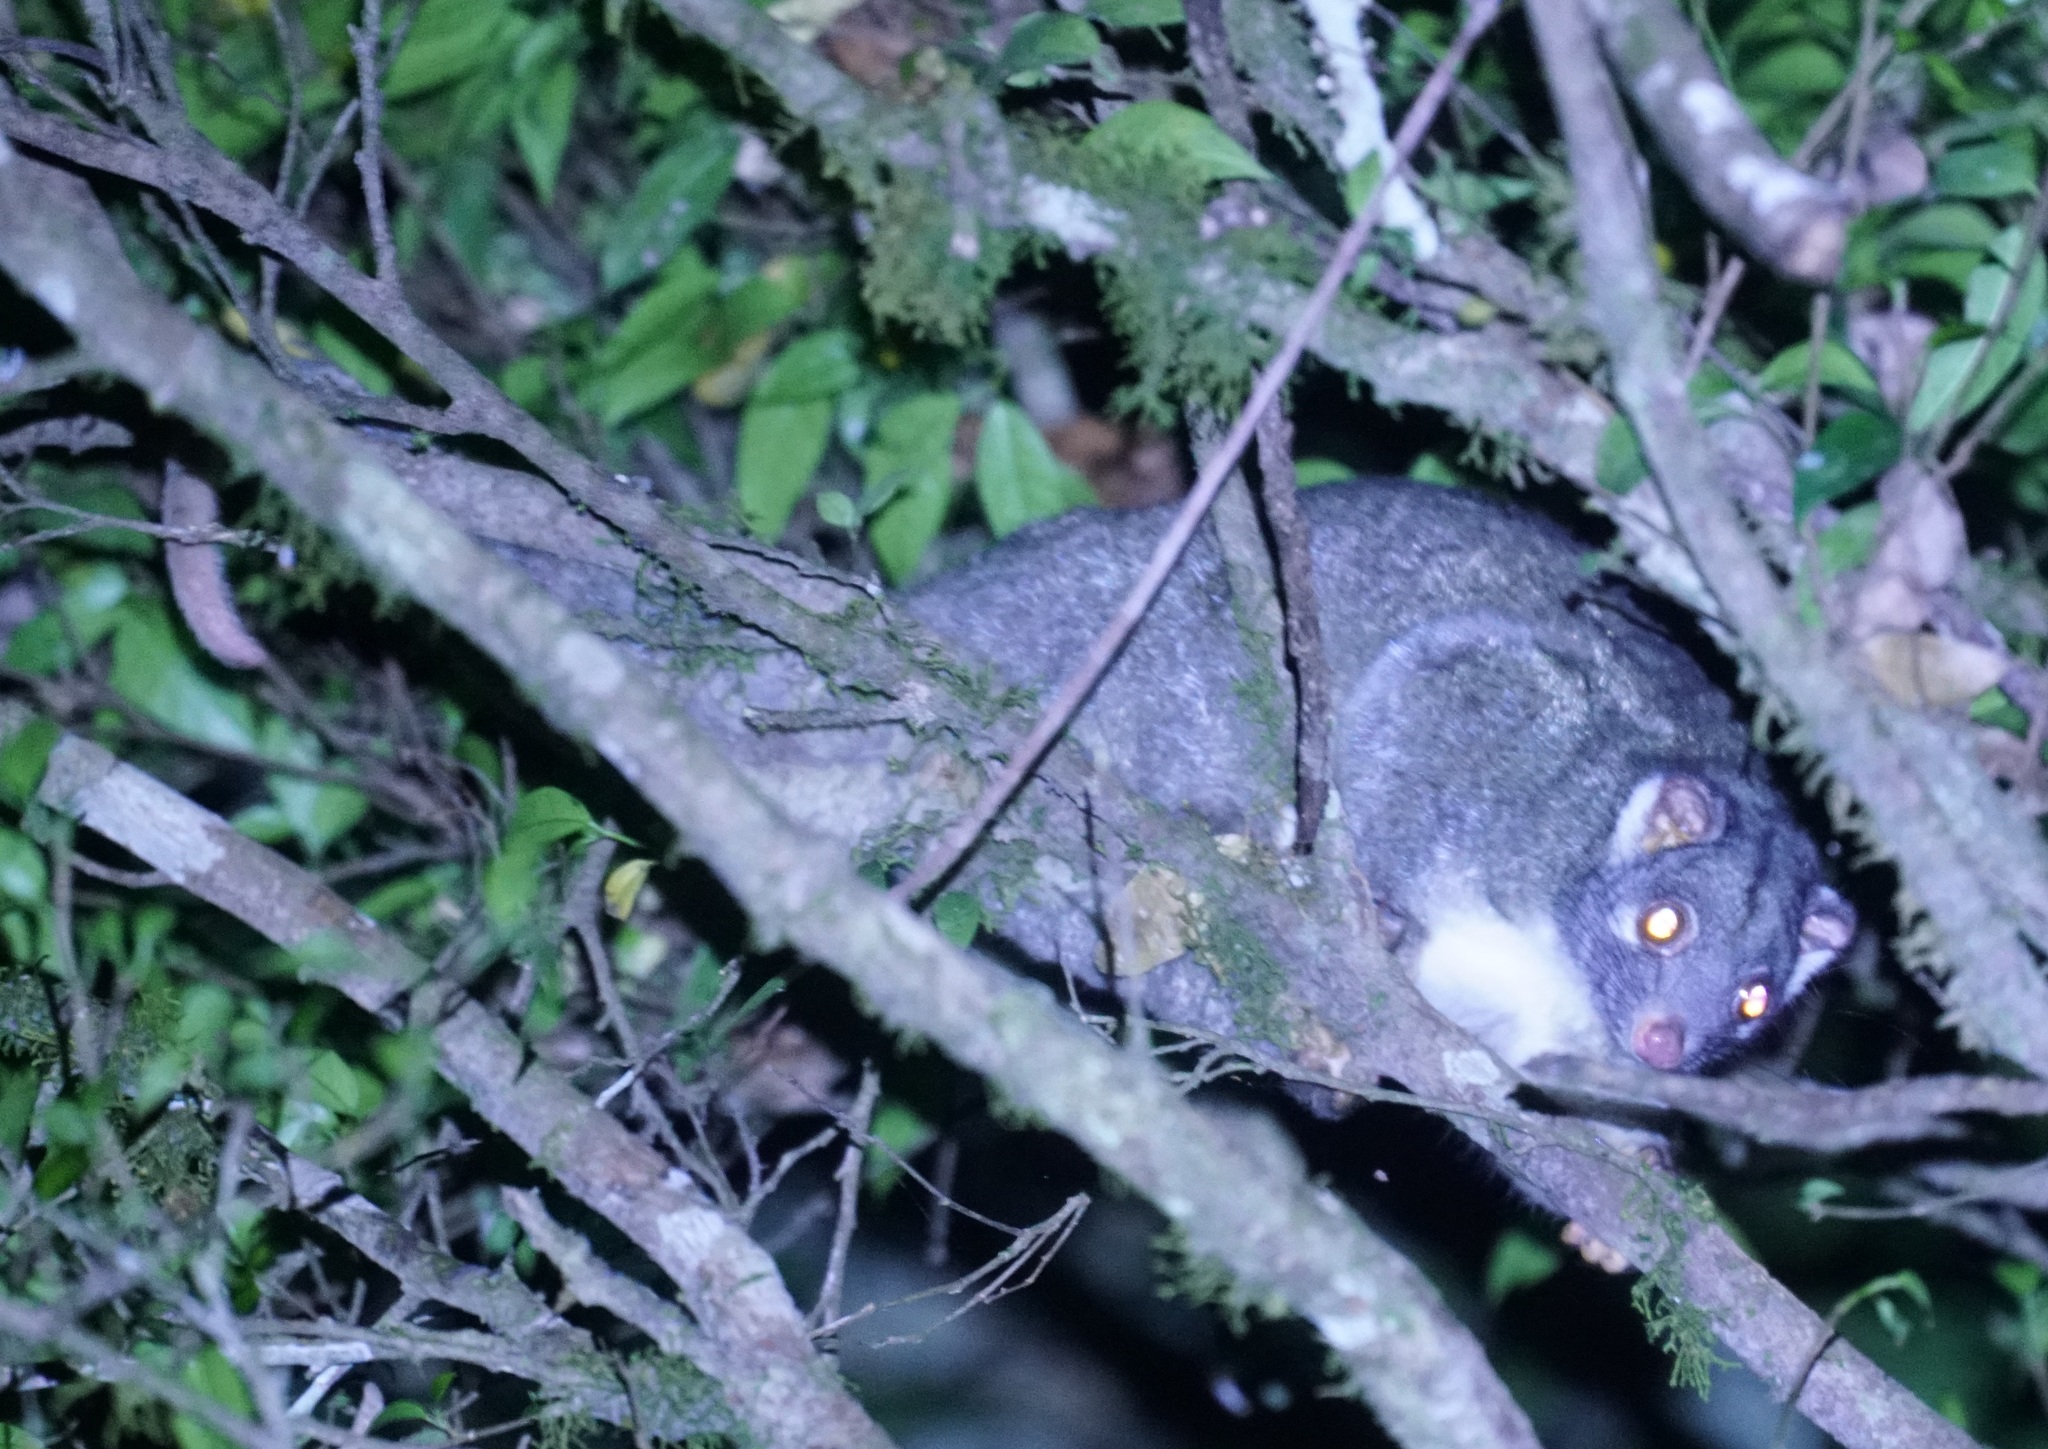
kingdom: Animalia
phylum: Chordata
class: Mammalia
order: Diprotodontia
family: Pseudocheiridae
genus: Pseudochirops
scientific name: Pseudochirops archeri
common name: Green ringtail
